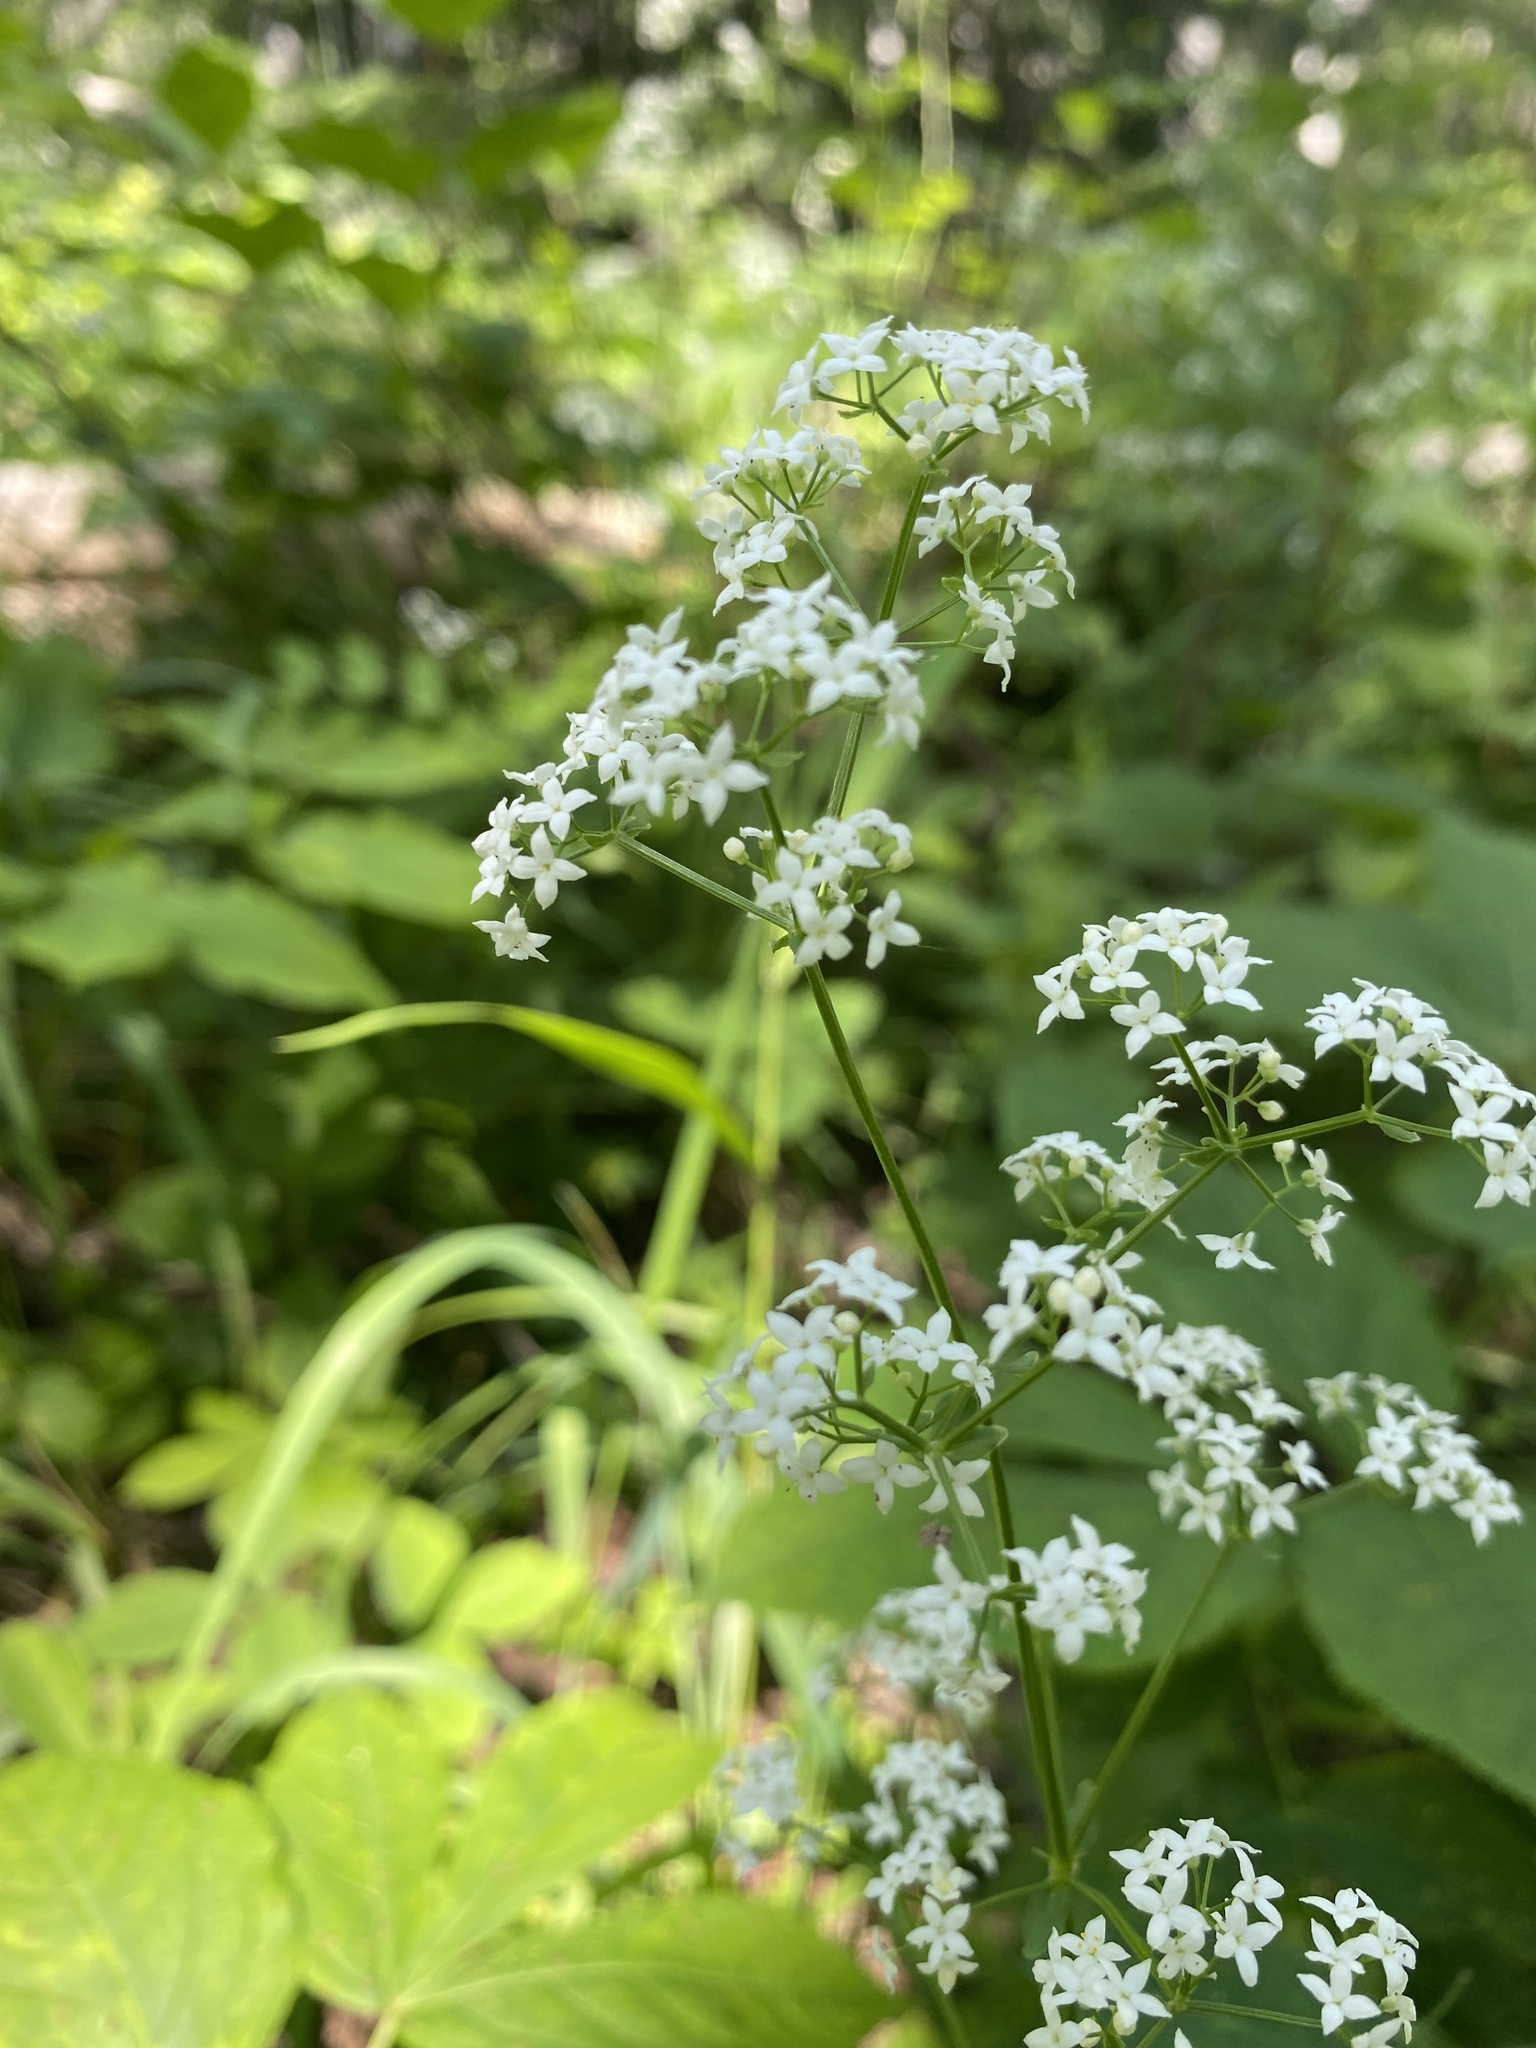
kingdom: Plantae
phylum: Tracheophyta
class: Magnoliopsida
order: Gentianales
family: Rubiaceae
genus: Galium
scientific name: Galium boreale
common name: Northern bedstraw
